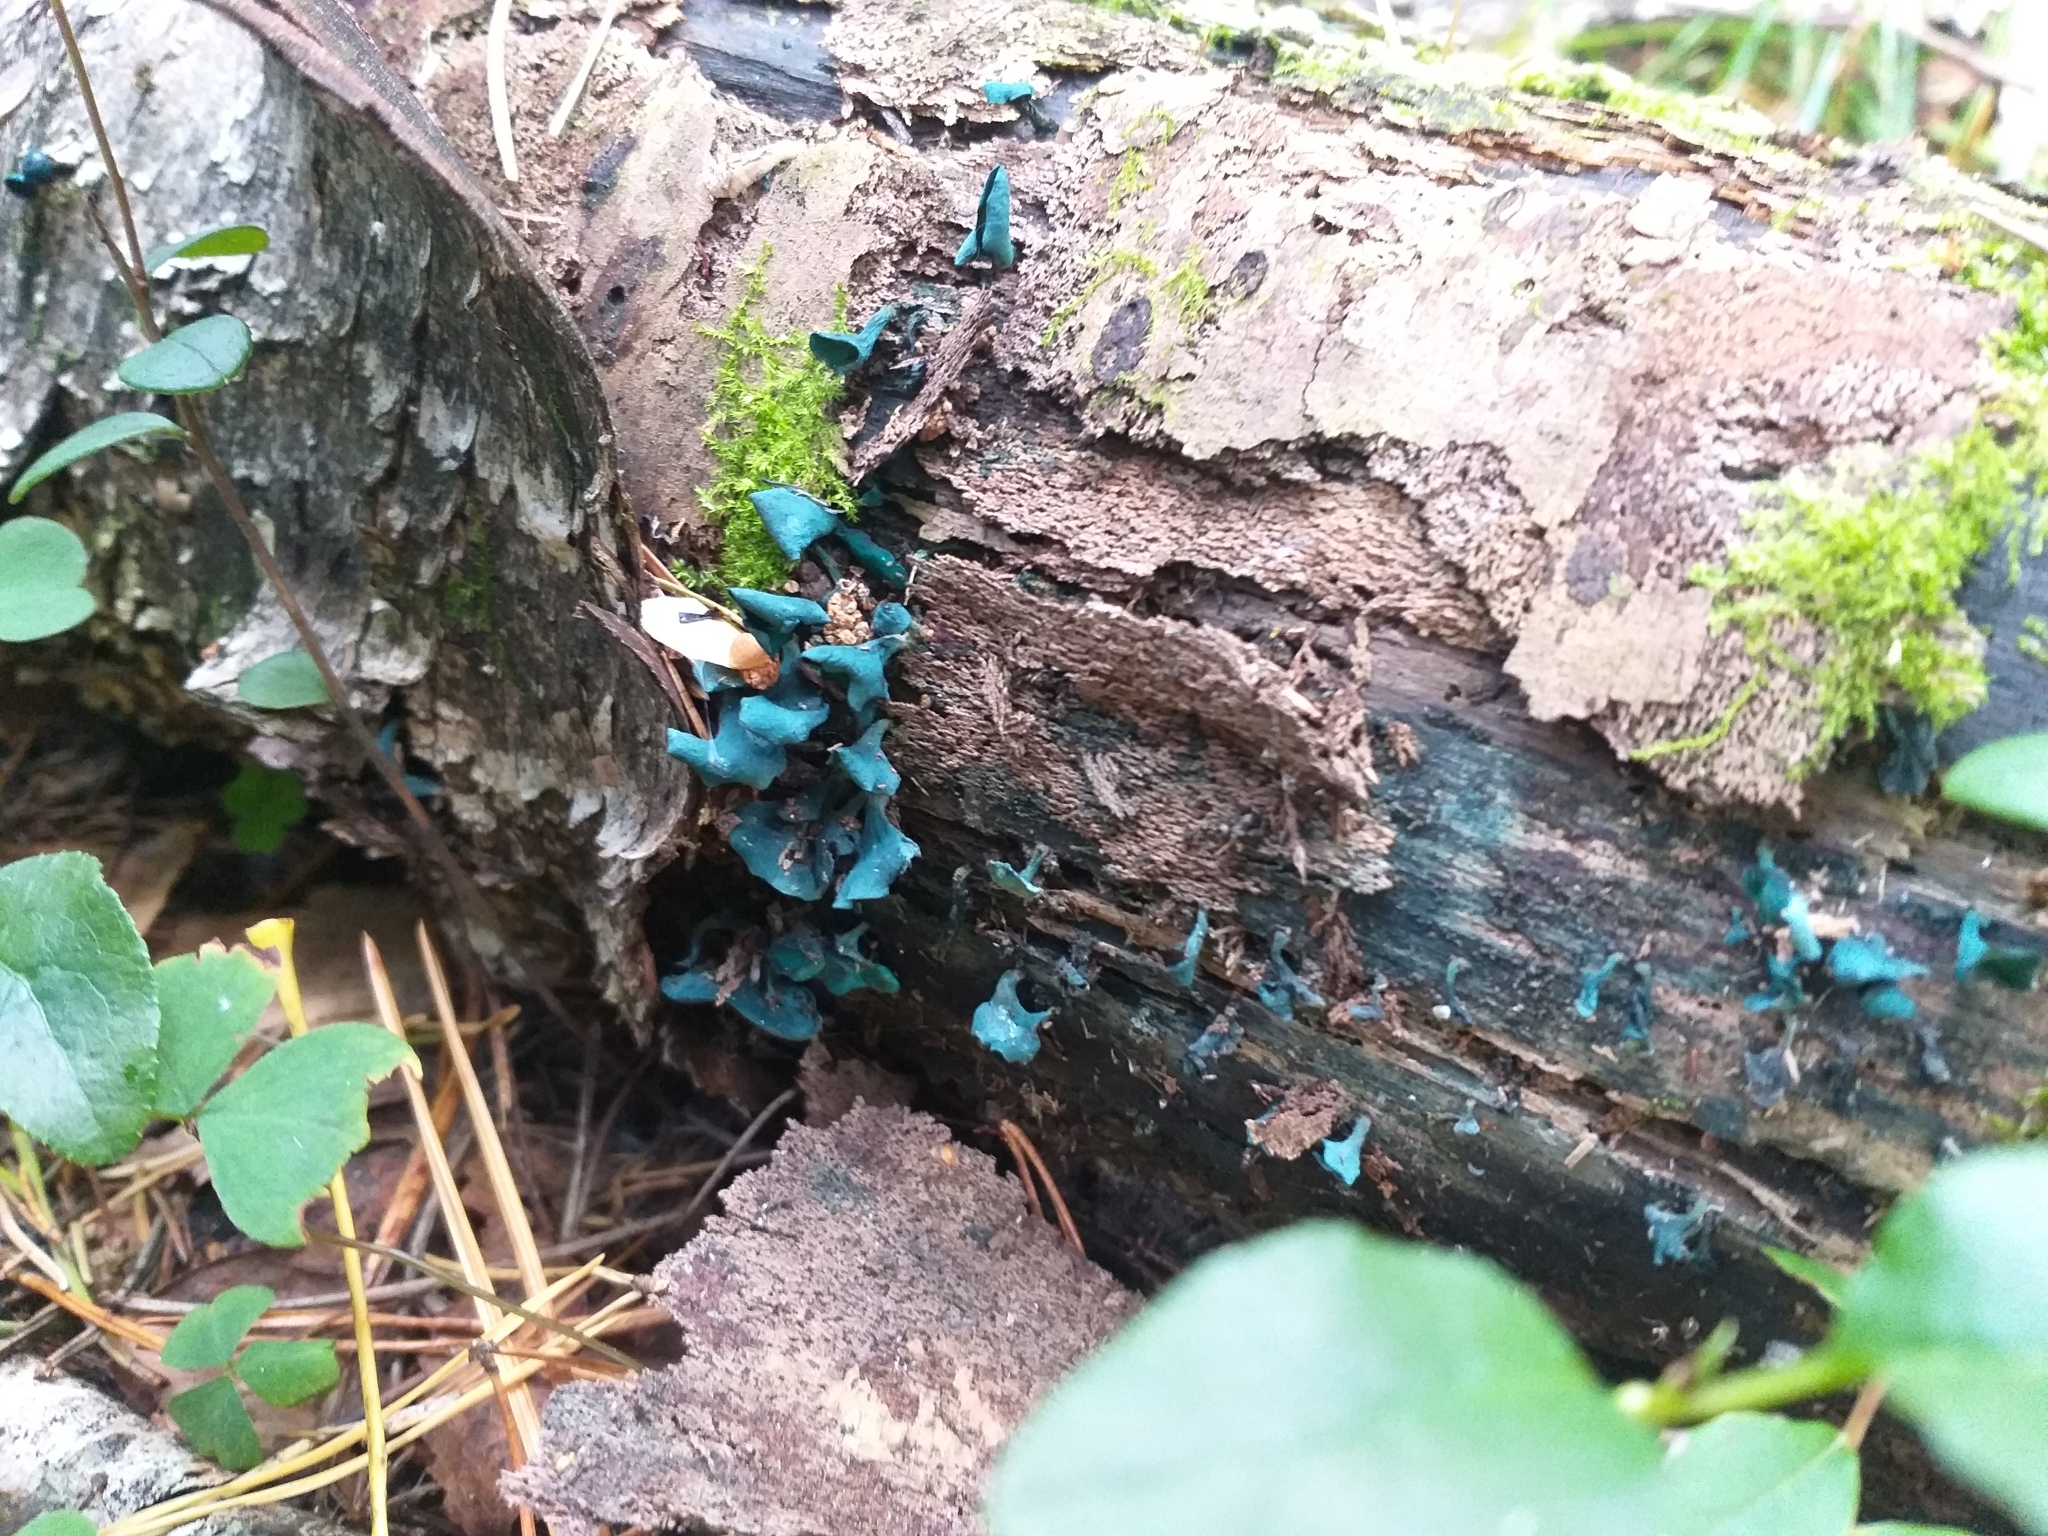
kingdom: Fungi
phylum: Ascomycota
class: Leotiomycetes
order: Helotiales
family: Chlorociboriaceae
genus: Chlorociboria
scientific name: Chlorociboria aeruginascens
